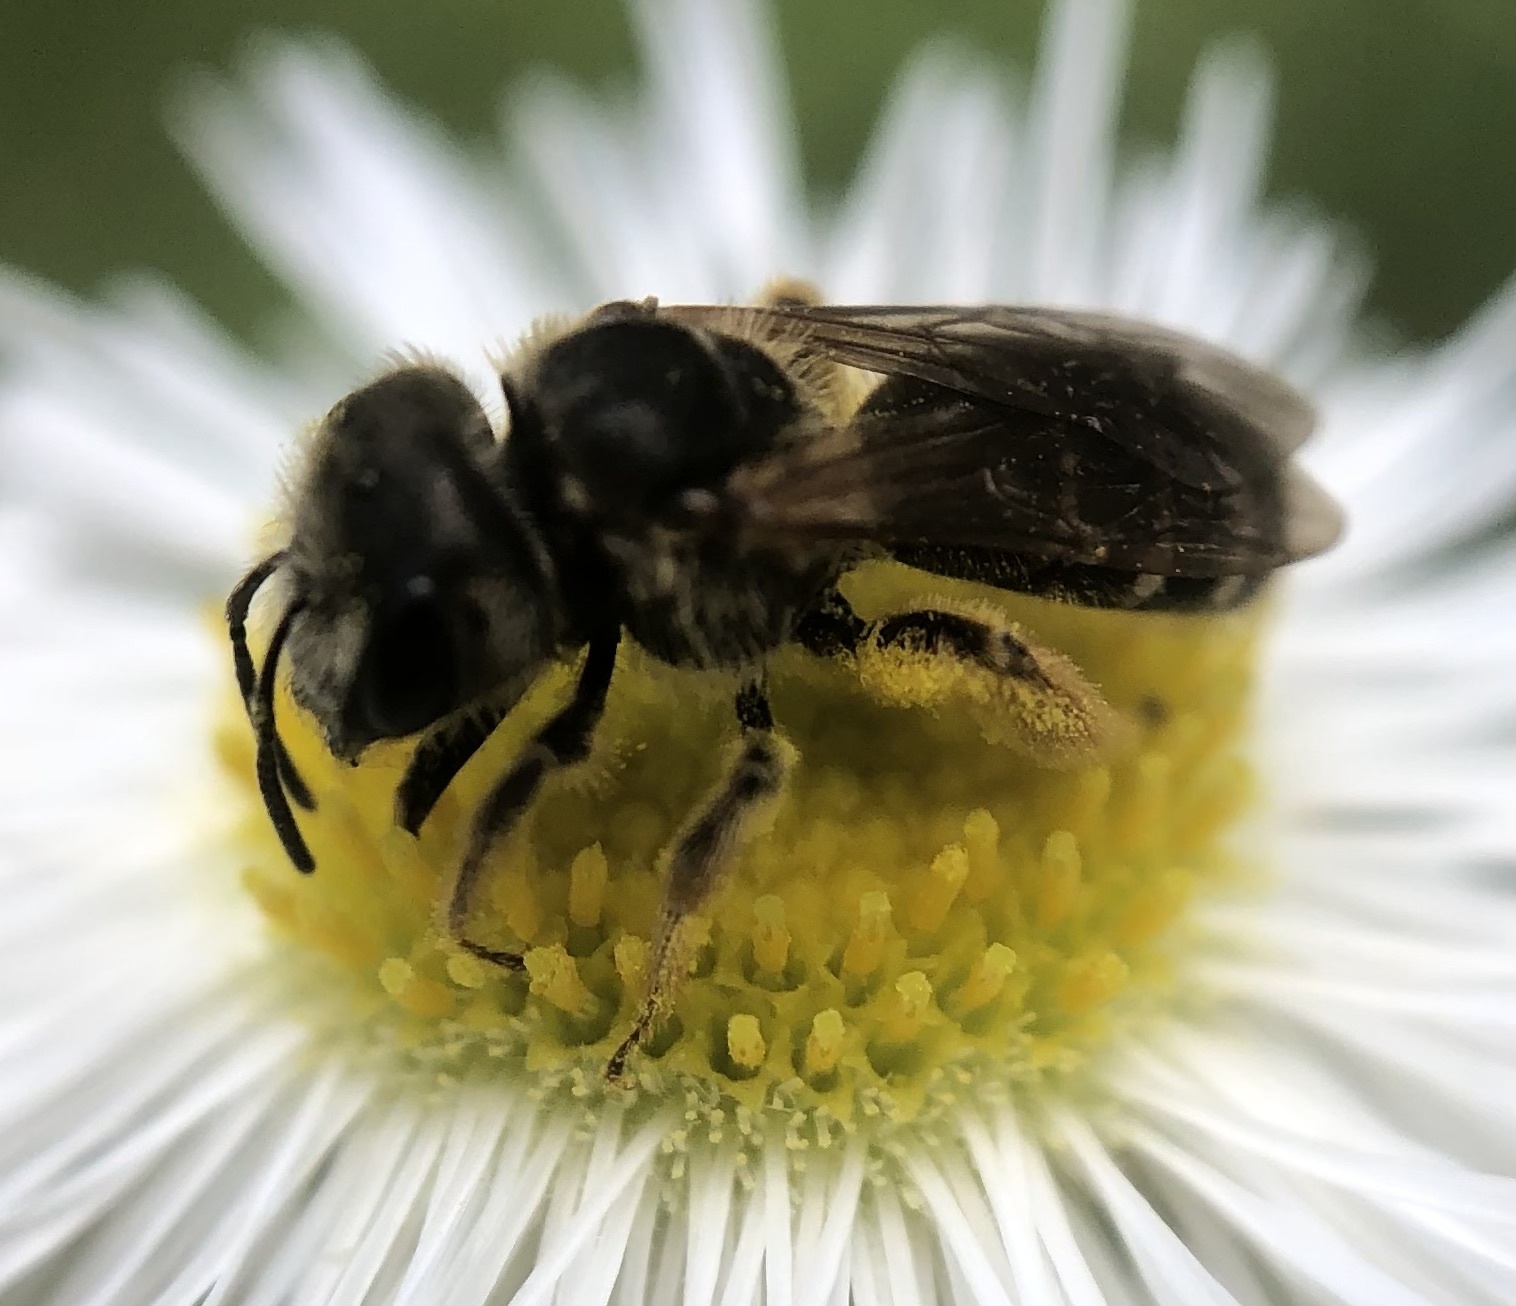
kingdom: Animalia
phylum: Arthropoda
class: Insecta
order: Hymenoptera
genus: Odontalictus
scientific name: Odontalictus
